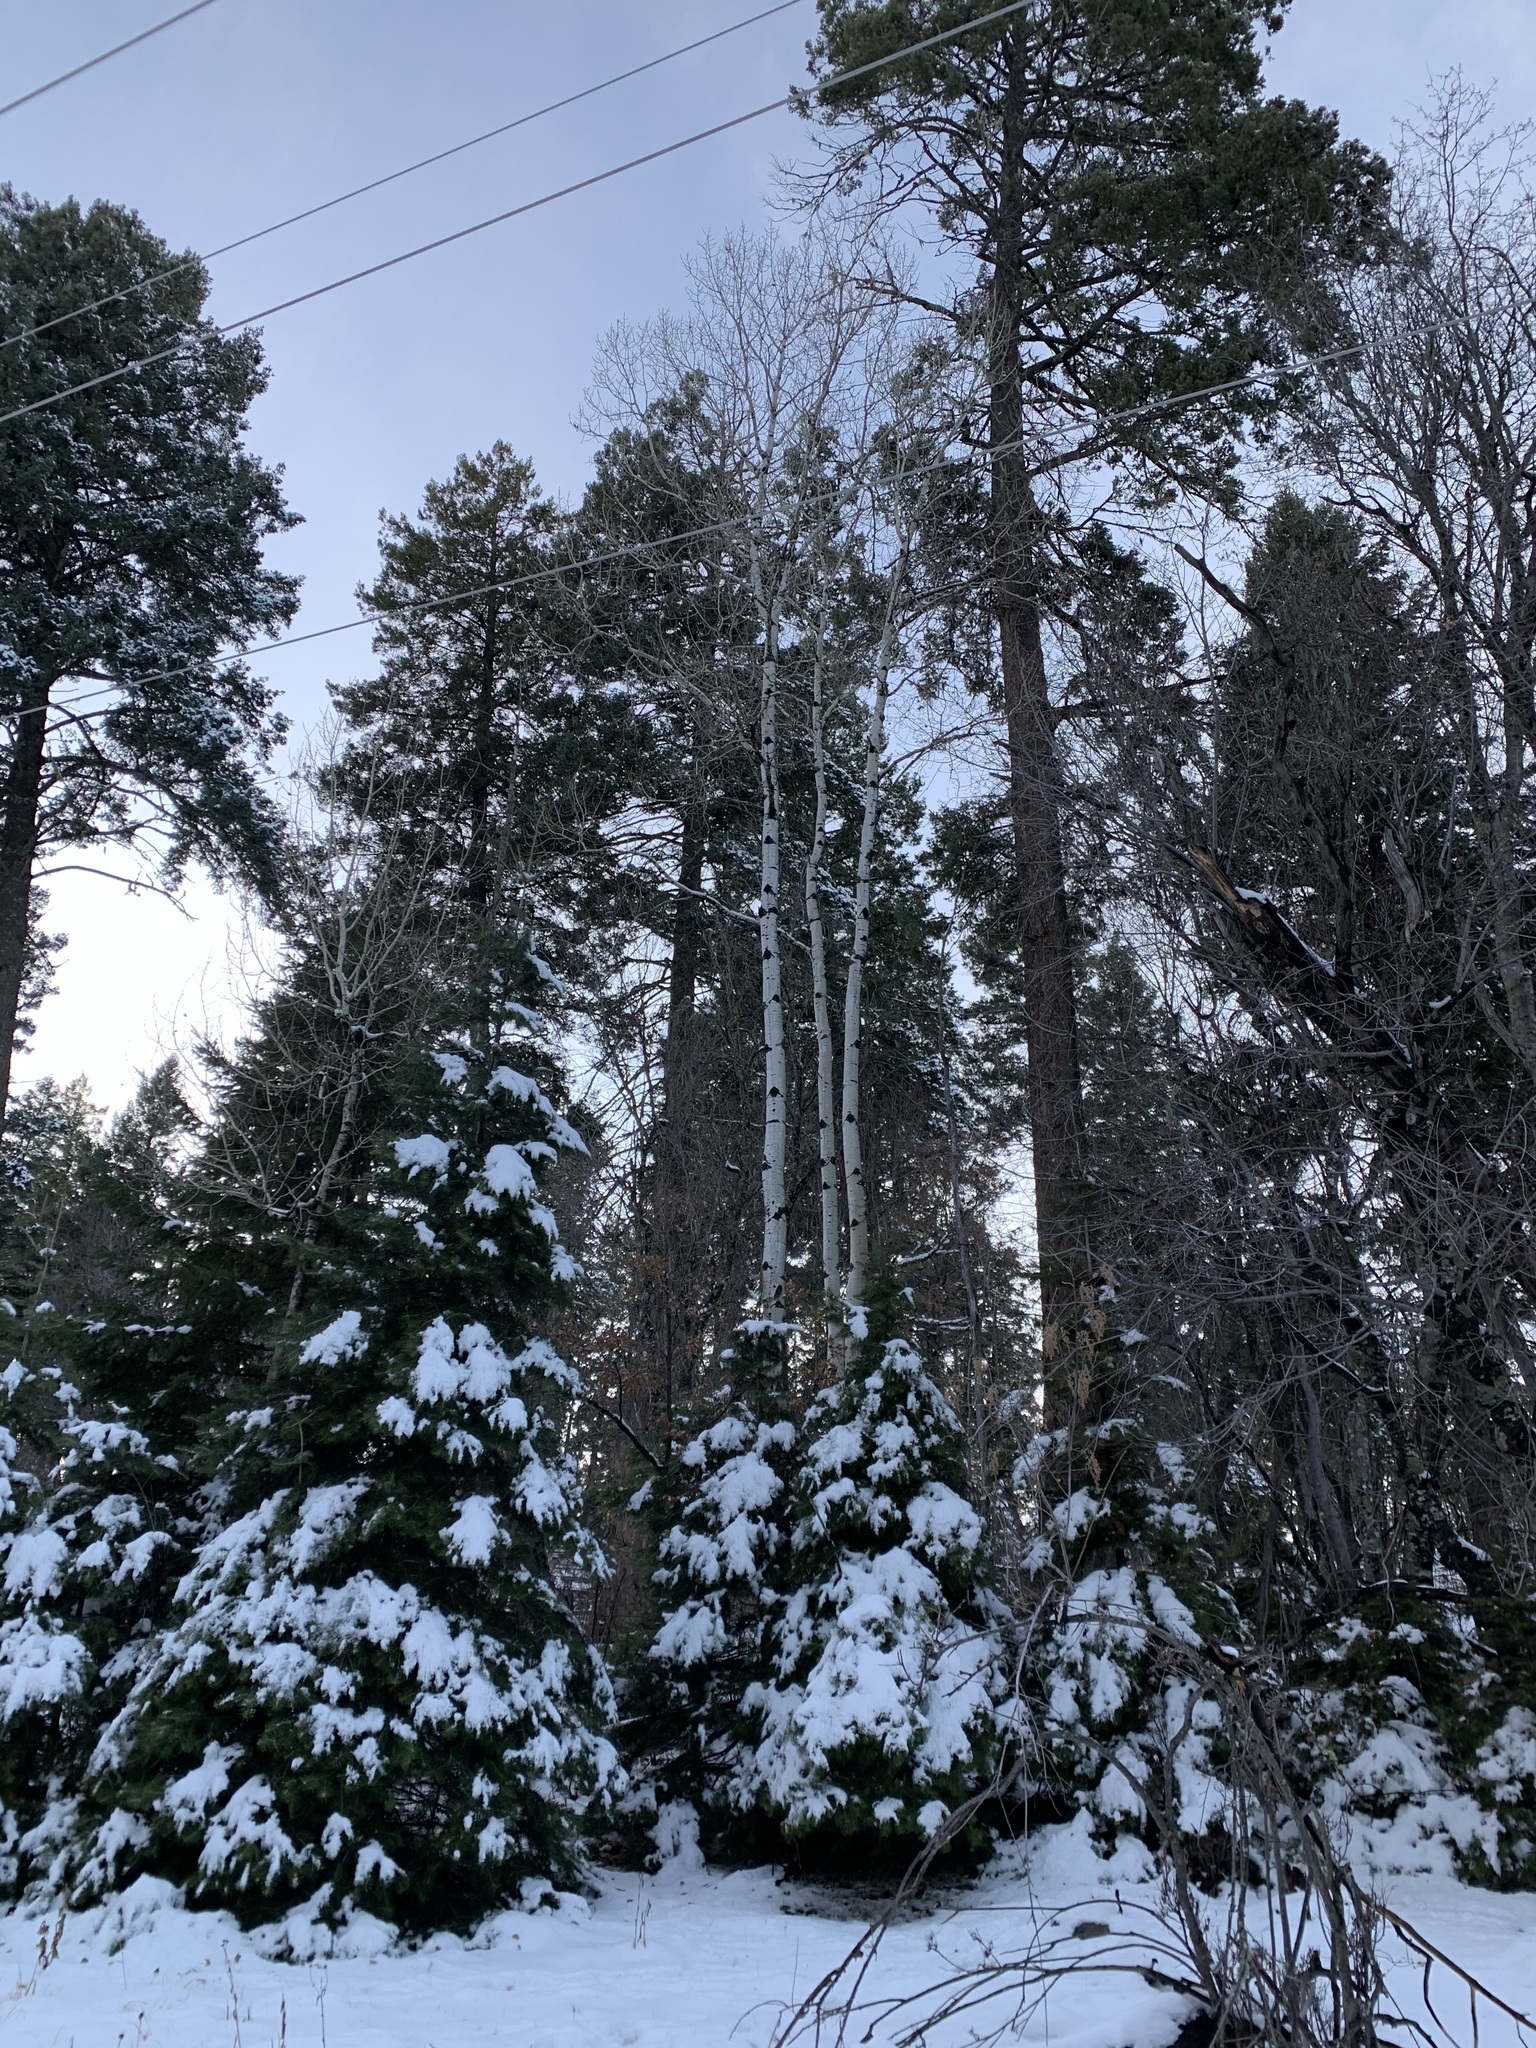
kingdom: Plantae
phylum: Tracheophyta
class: Magnoliopsida
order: Malpighiales
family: Salicaceae
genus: Populus
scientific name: Populus tremuloides
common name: Quaking aspen
